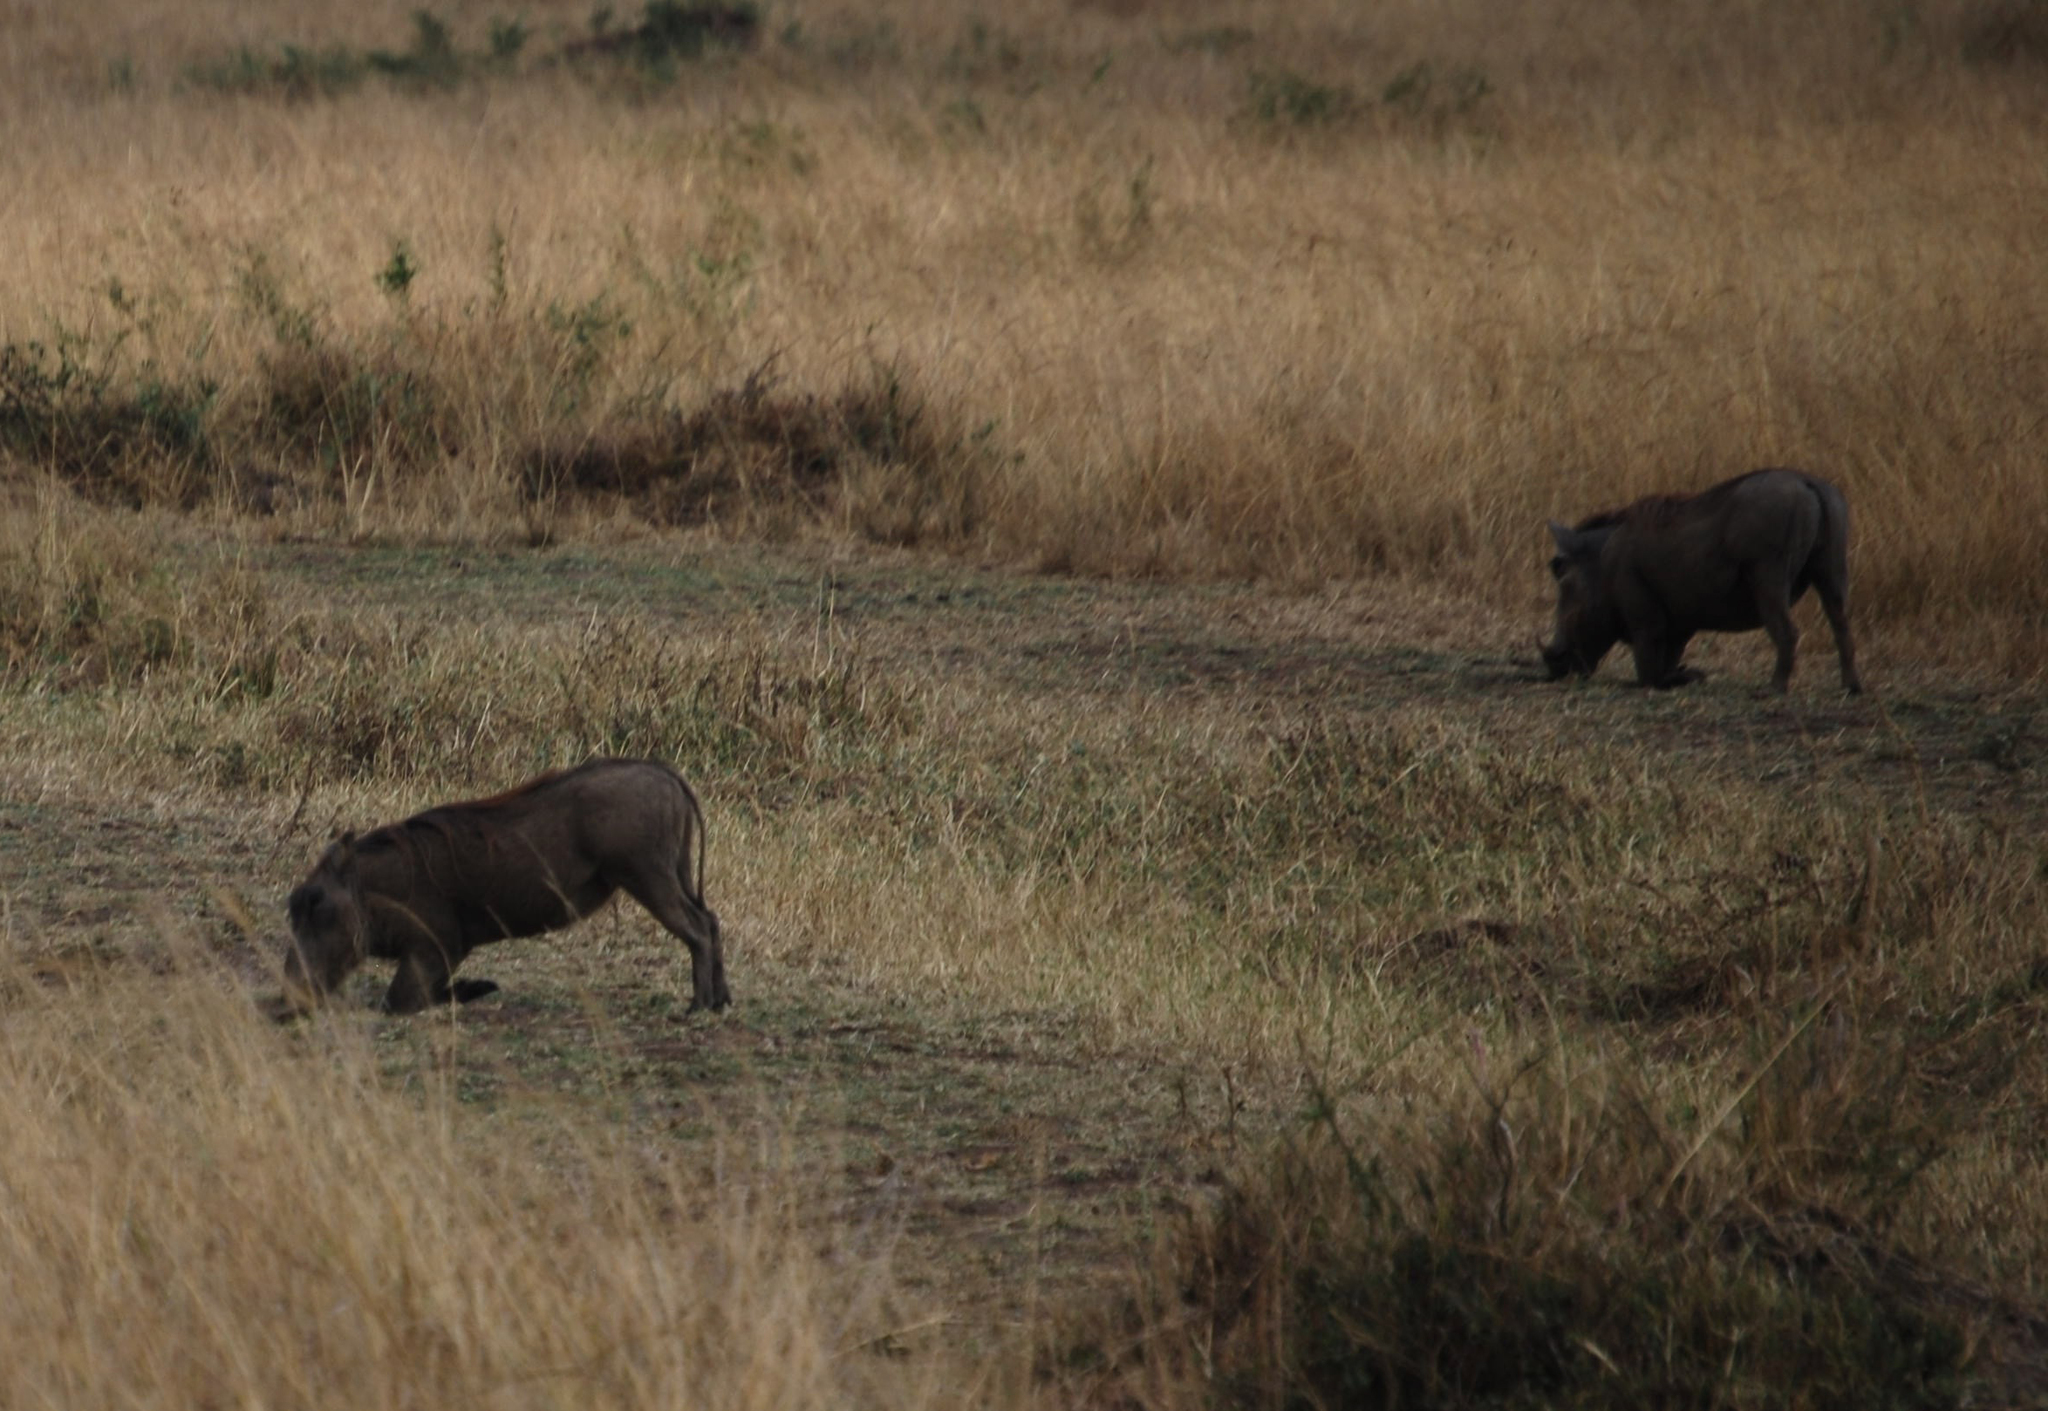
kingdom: Animalia
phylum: Chordata
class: Mammalia
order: Artiodactyla
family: Suidae
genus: Phacochoerus
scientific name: Phacochoerus africanus
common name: Common warthog
